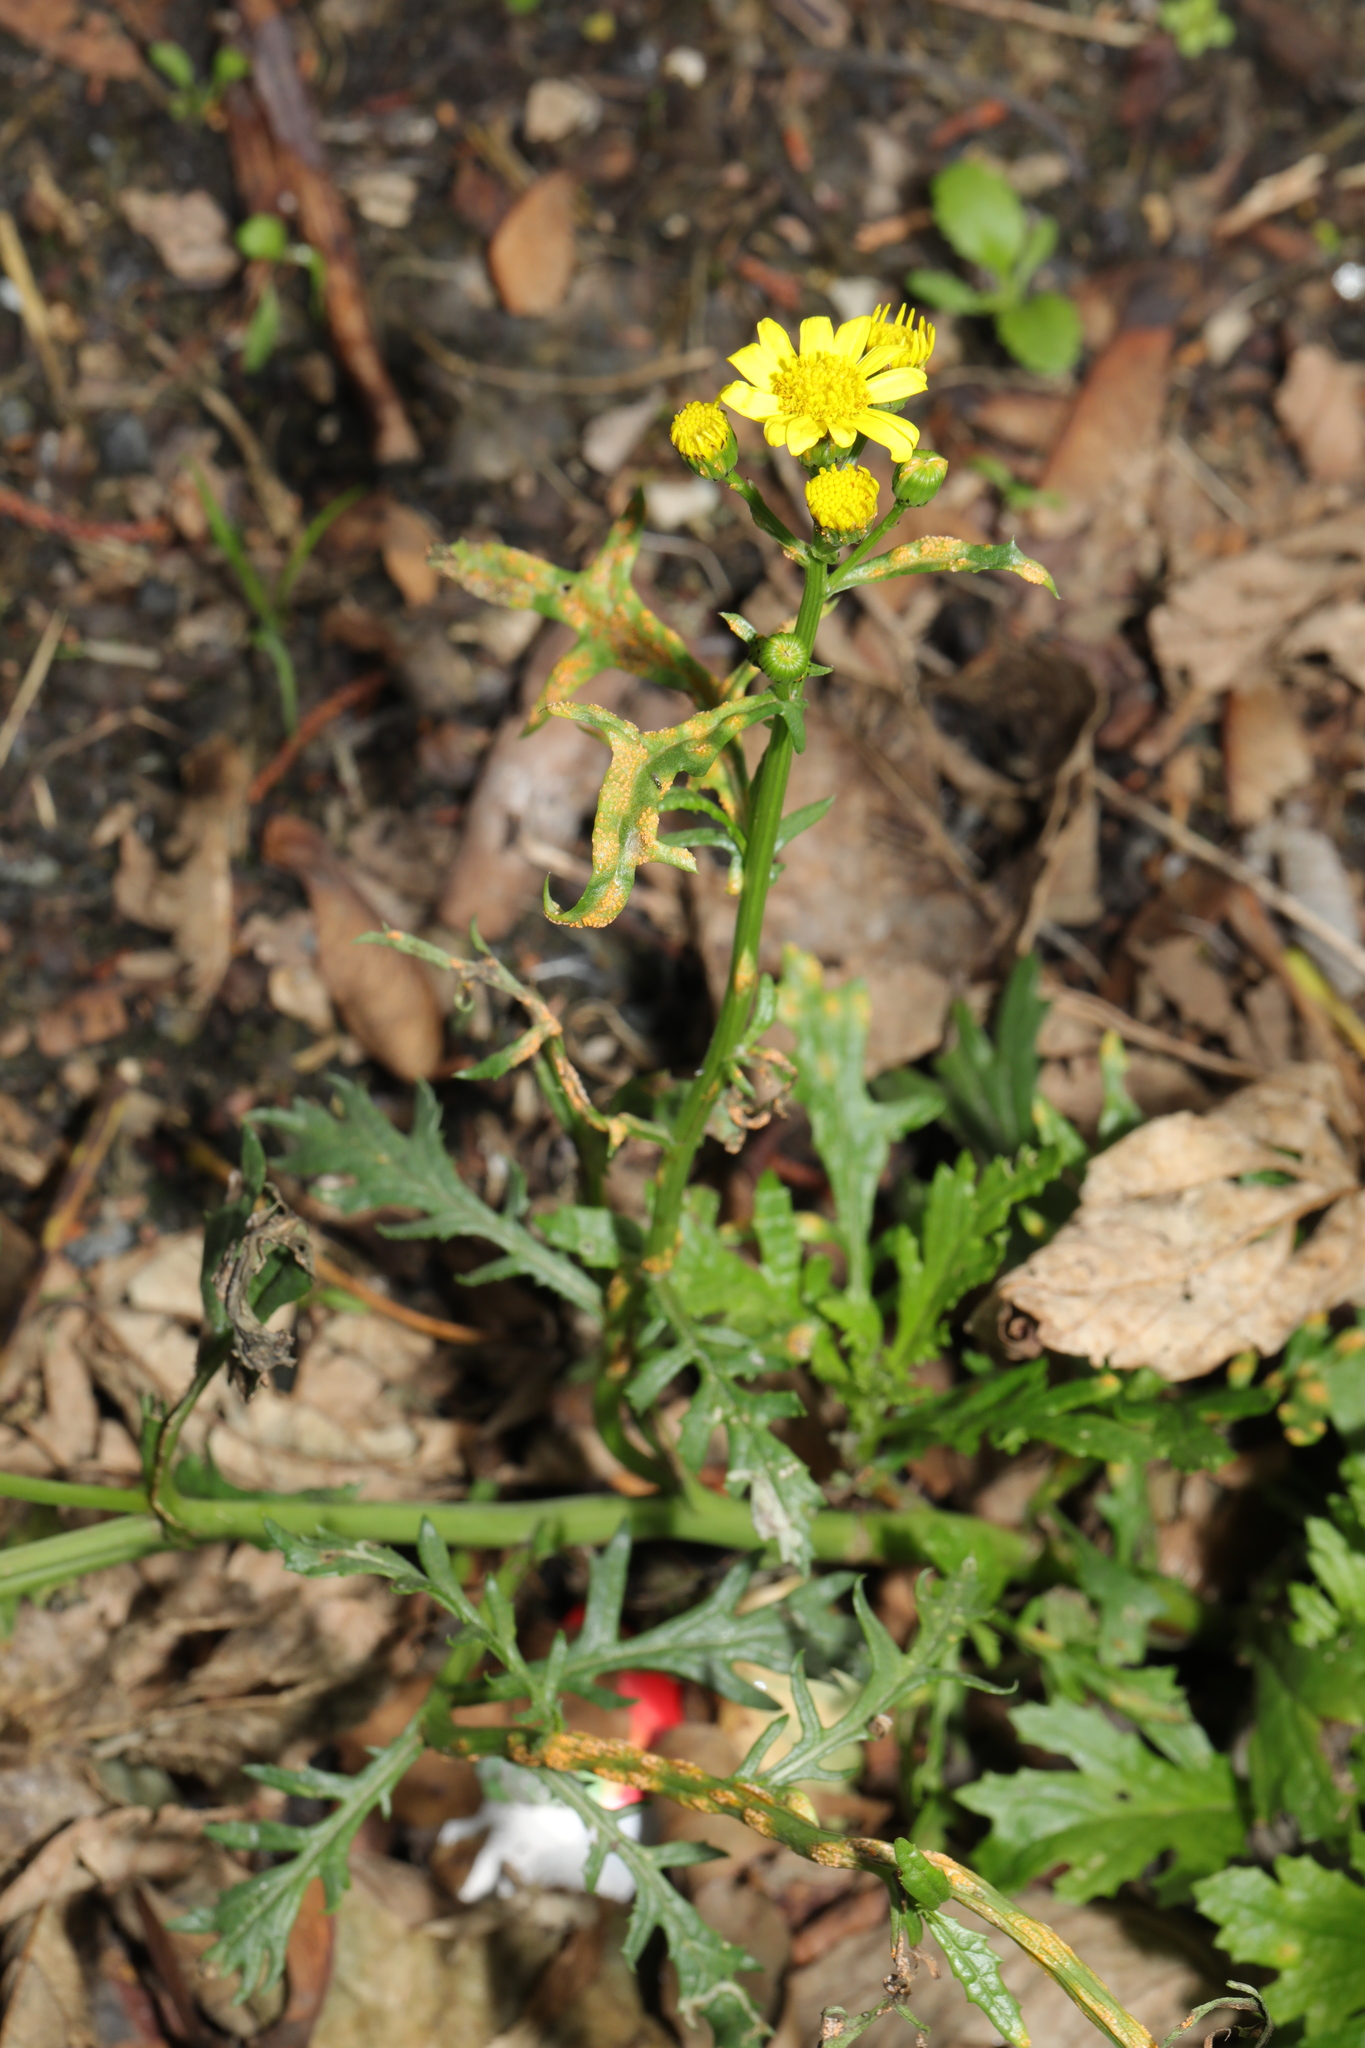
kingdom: Plantae
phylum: Tracheophyta
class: Magnoliopsida
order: Asterales
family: Asteraceae
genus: Senecio
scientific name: Senecio squalidus
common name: Oxford ragwort
